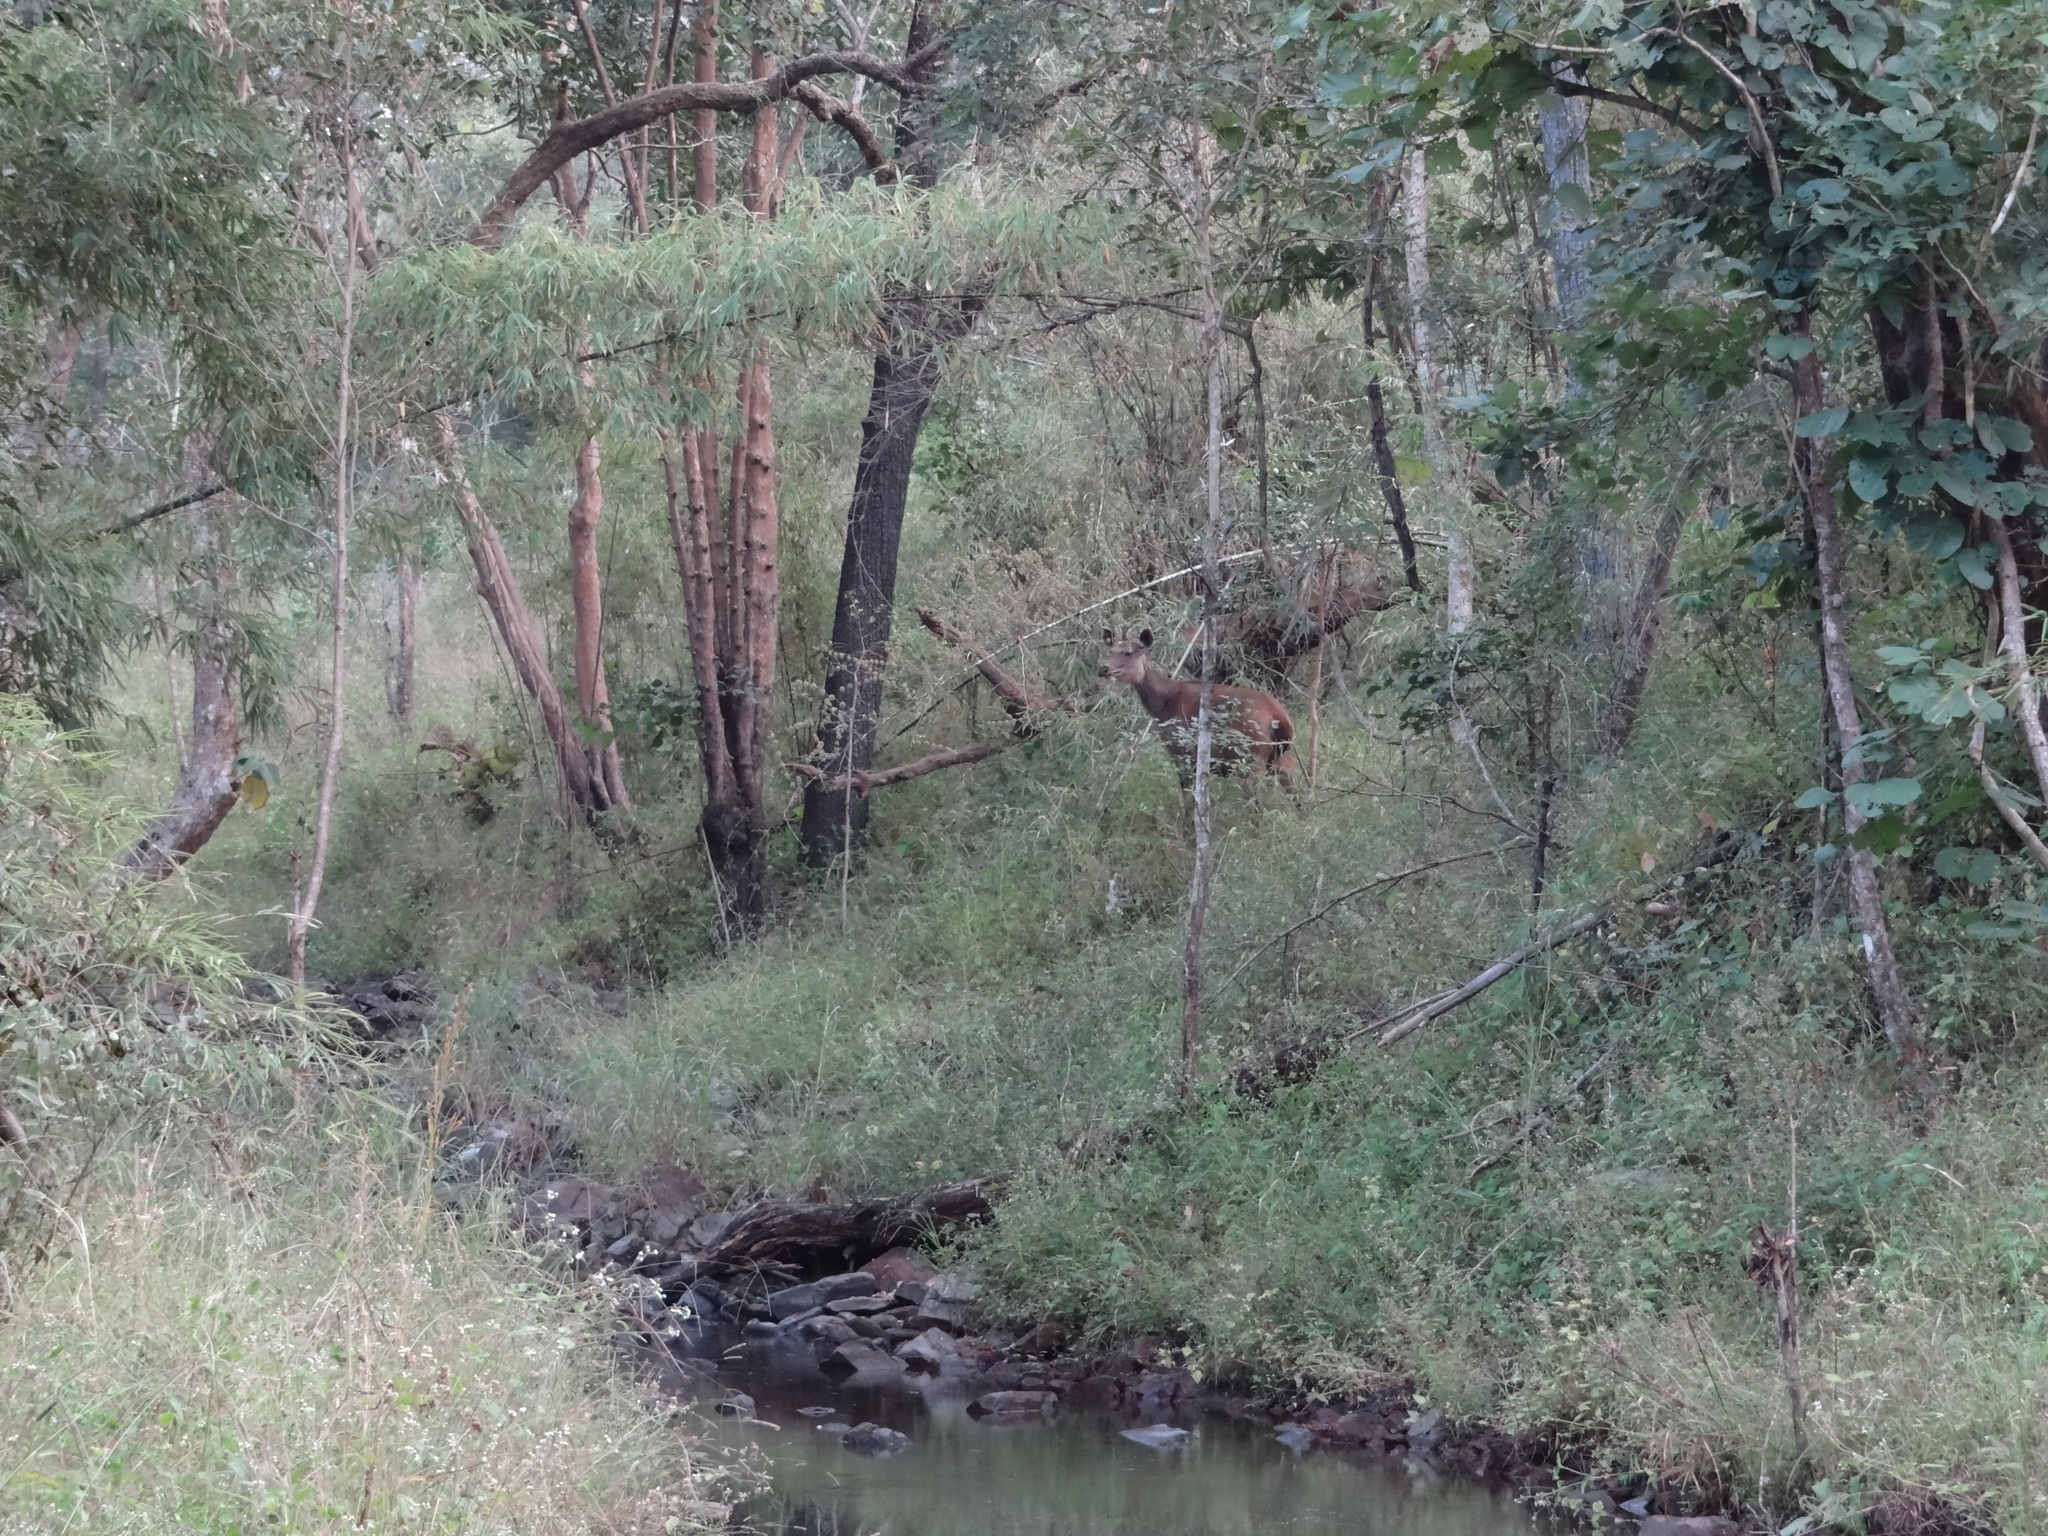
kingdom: Animalia
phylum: Chordata
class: Mammalia
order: Artiodactyla
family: Cervidae
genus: Rusa
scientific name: Rusa unicolor
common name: Sambar
